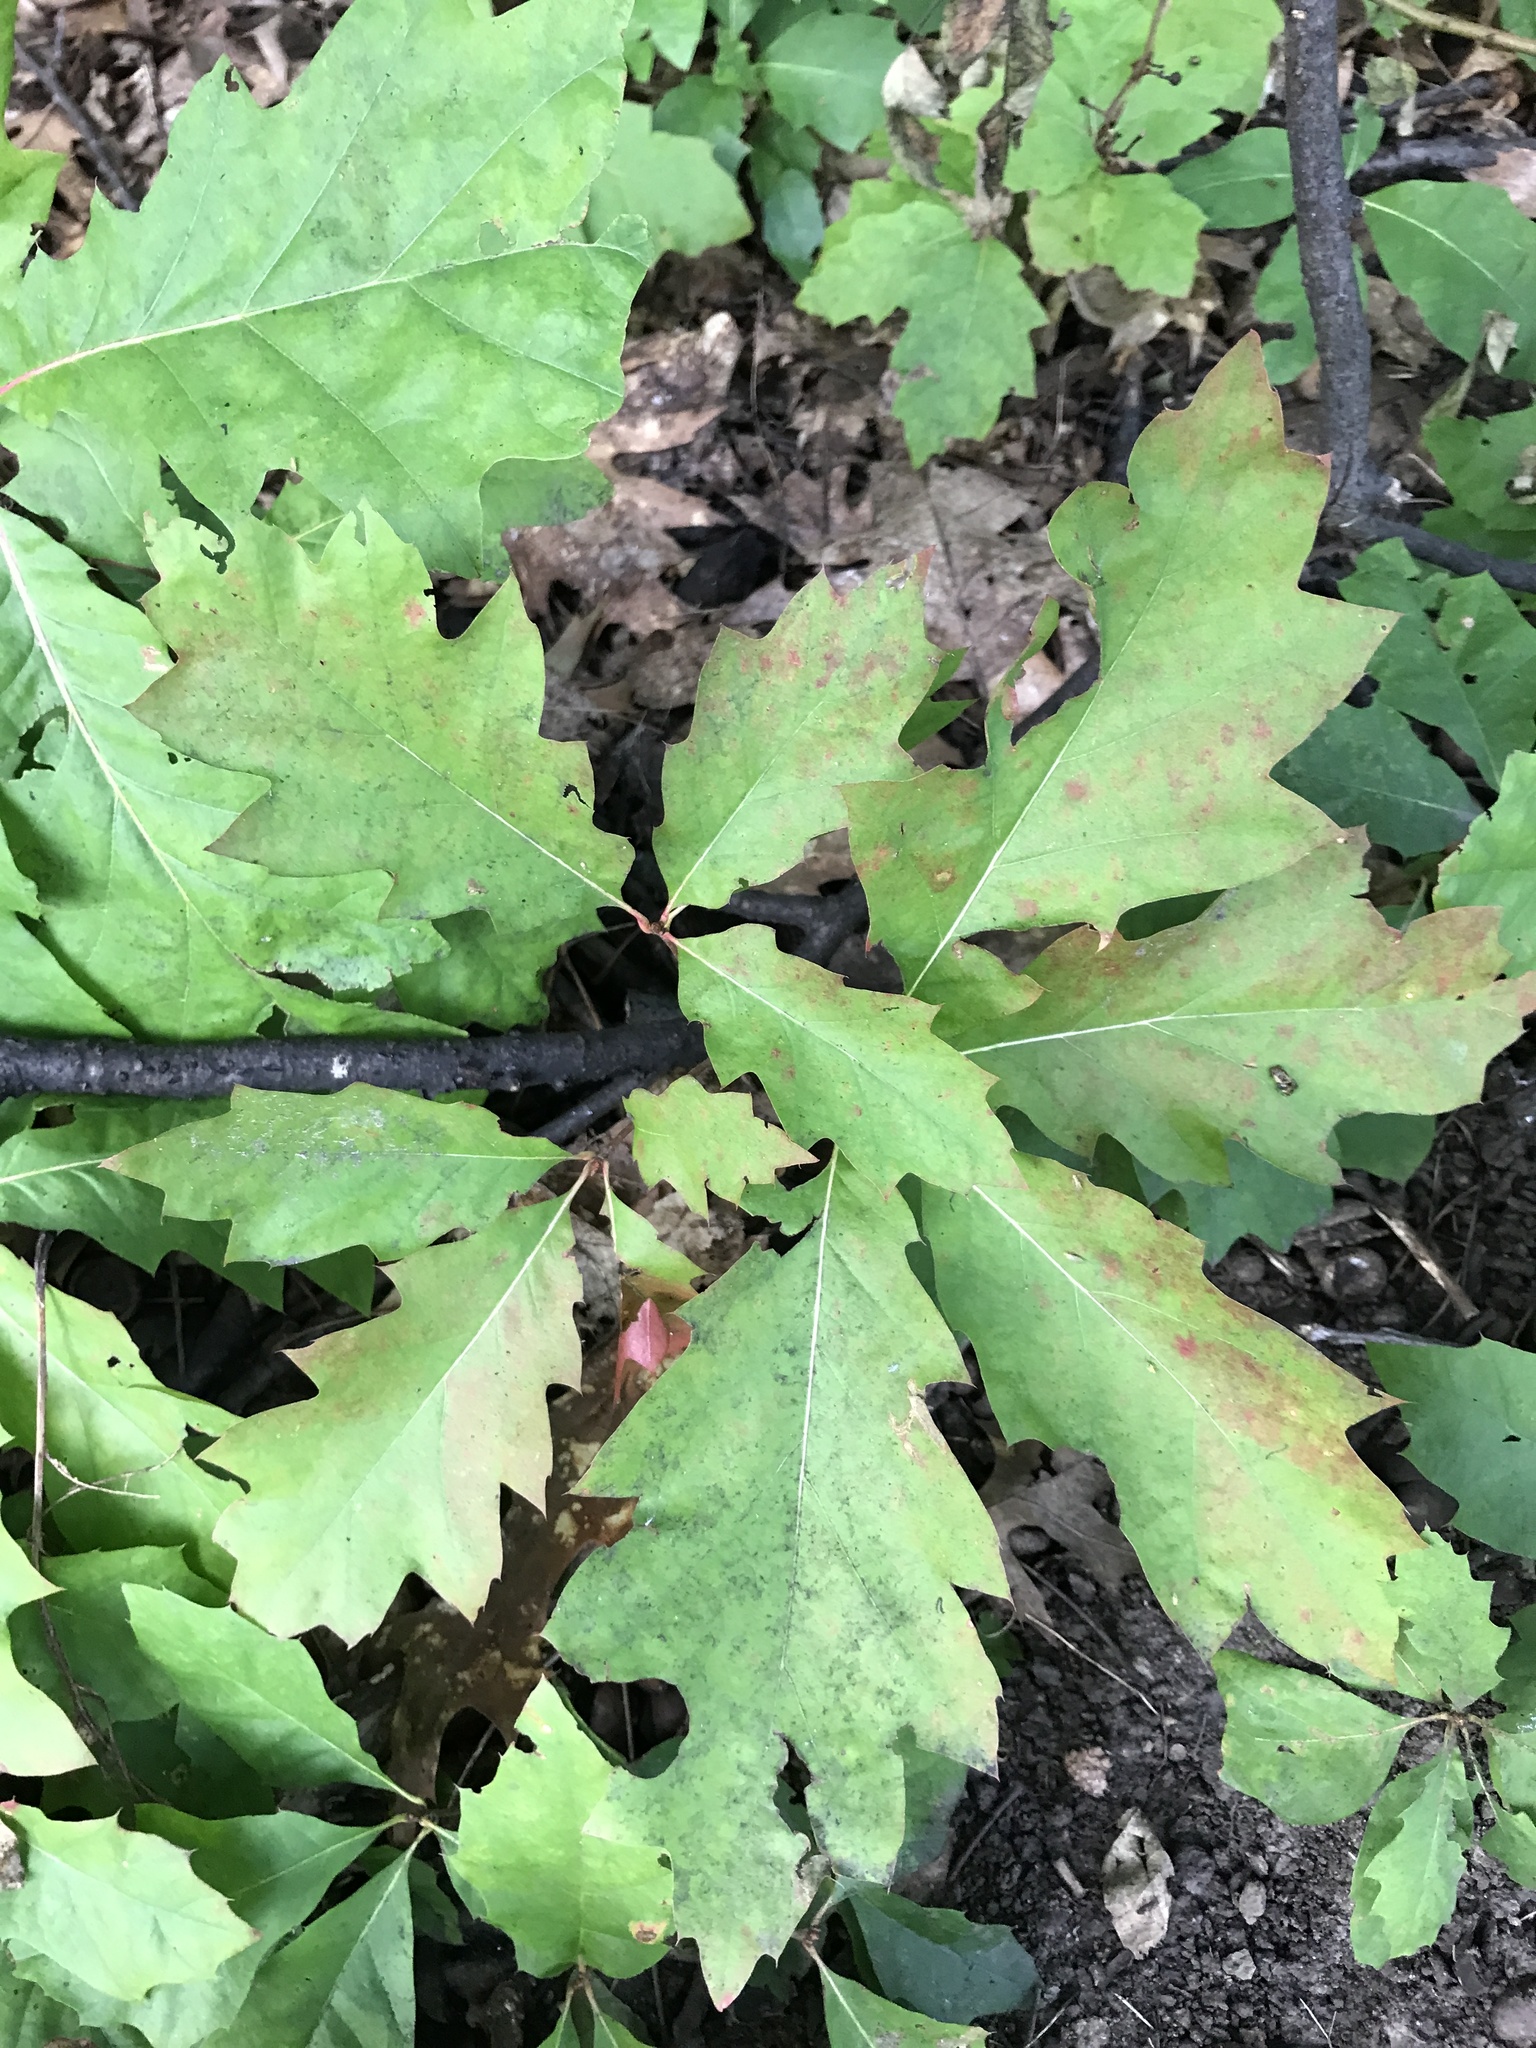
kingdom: Plantae
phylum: Tracheophyta
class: Magnoliopsida
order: Fagales
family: Fagaceae
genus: Quercus
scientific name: Quercus rubra
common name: Red oak
